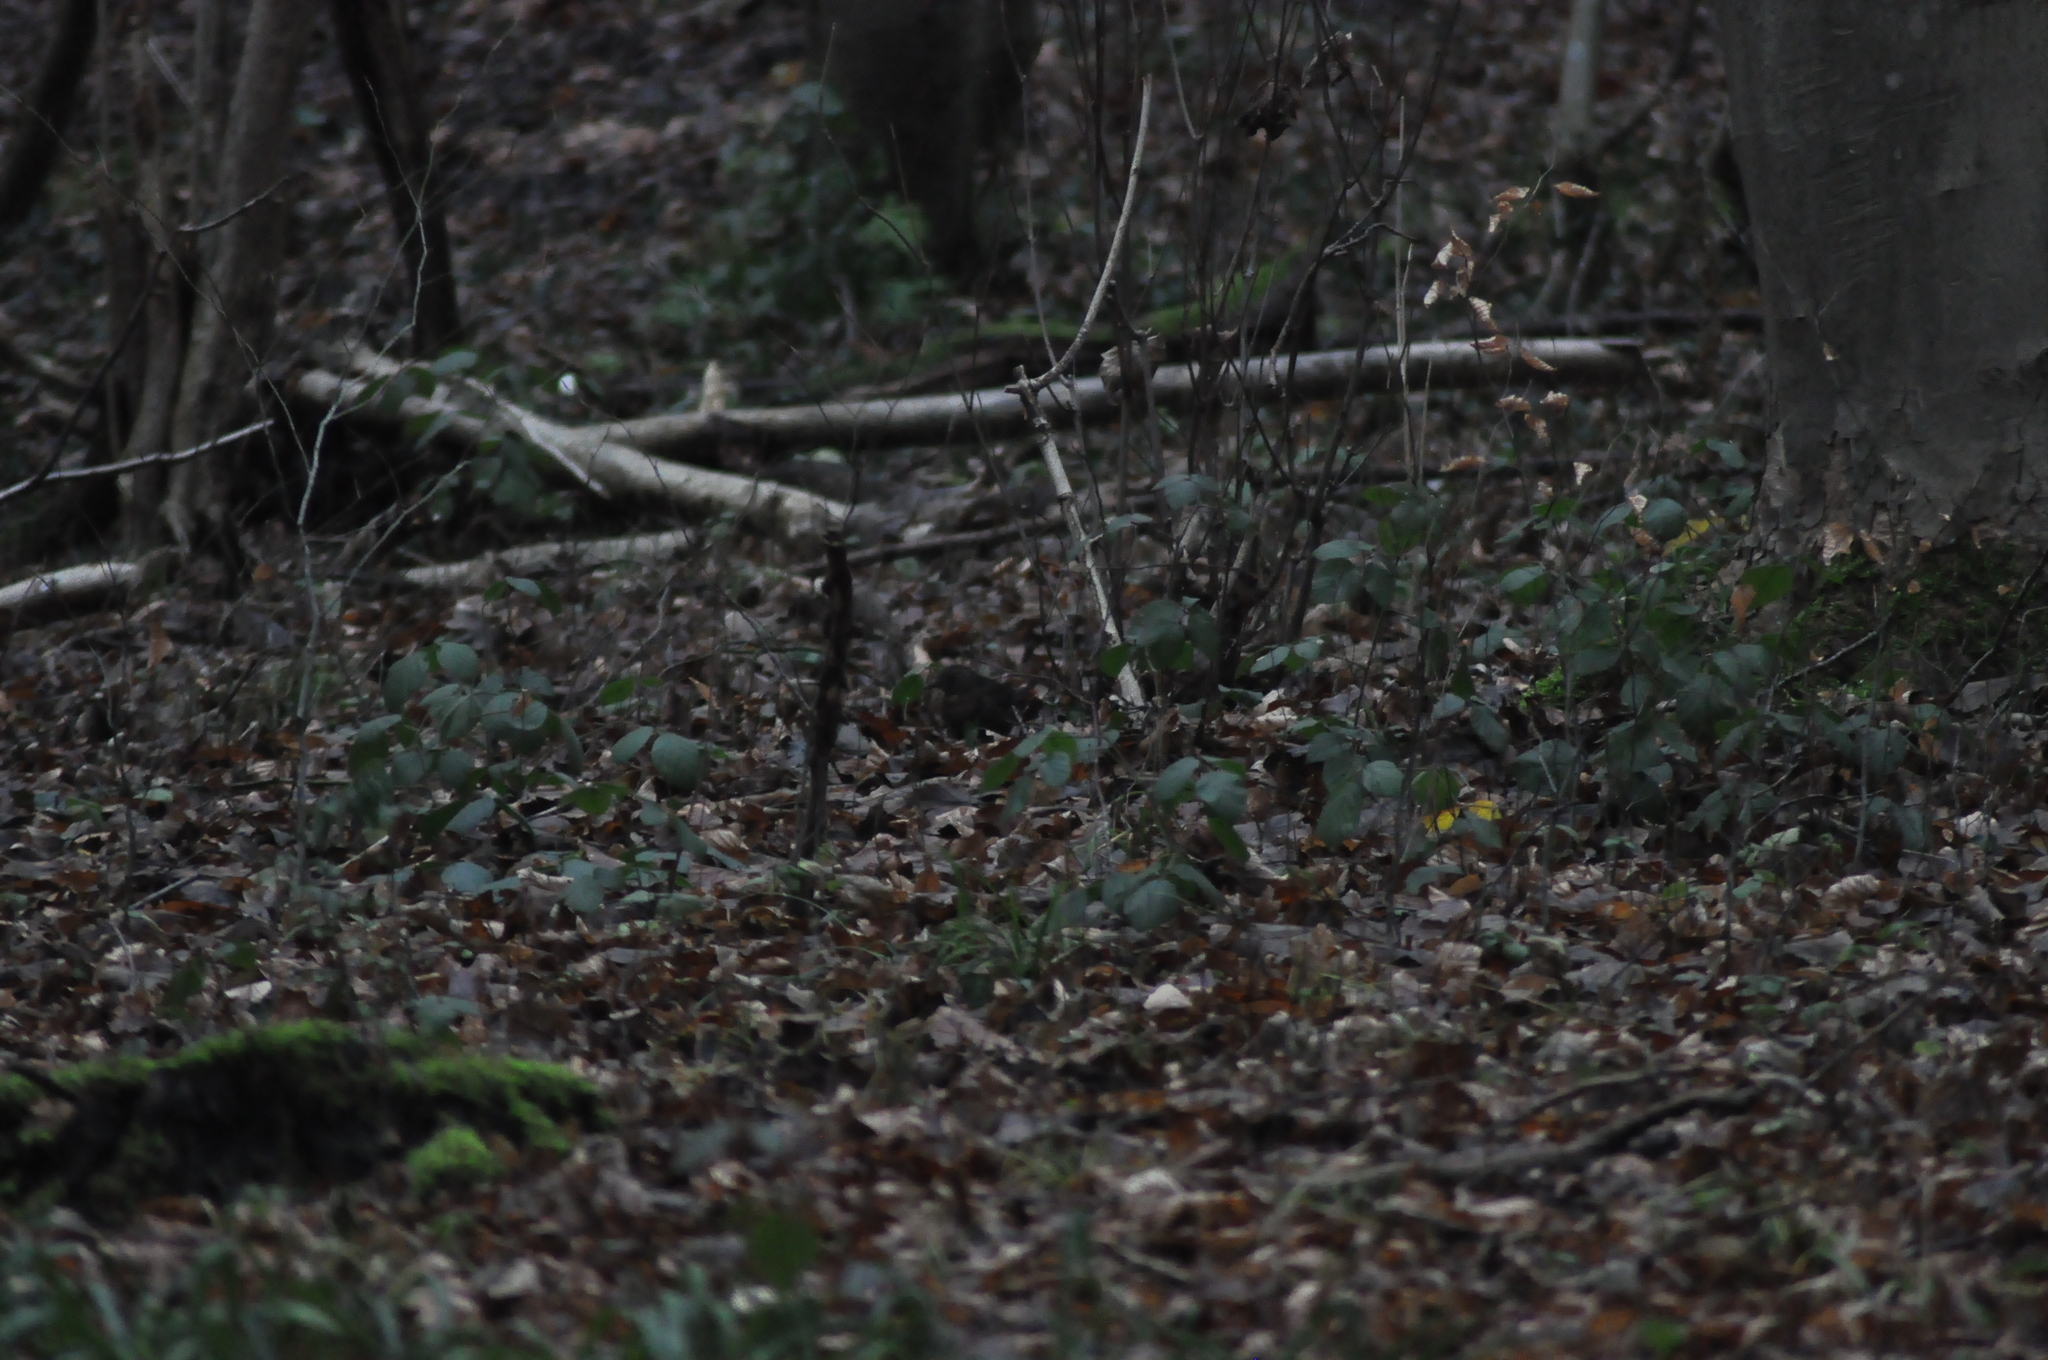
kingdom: Animalia
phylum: Chordata
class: Aves
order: Passeriformes
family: Turdidae
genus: Turdus
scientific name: Turdus merula
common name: Common blackbird
